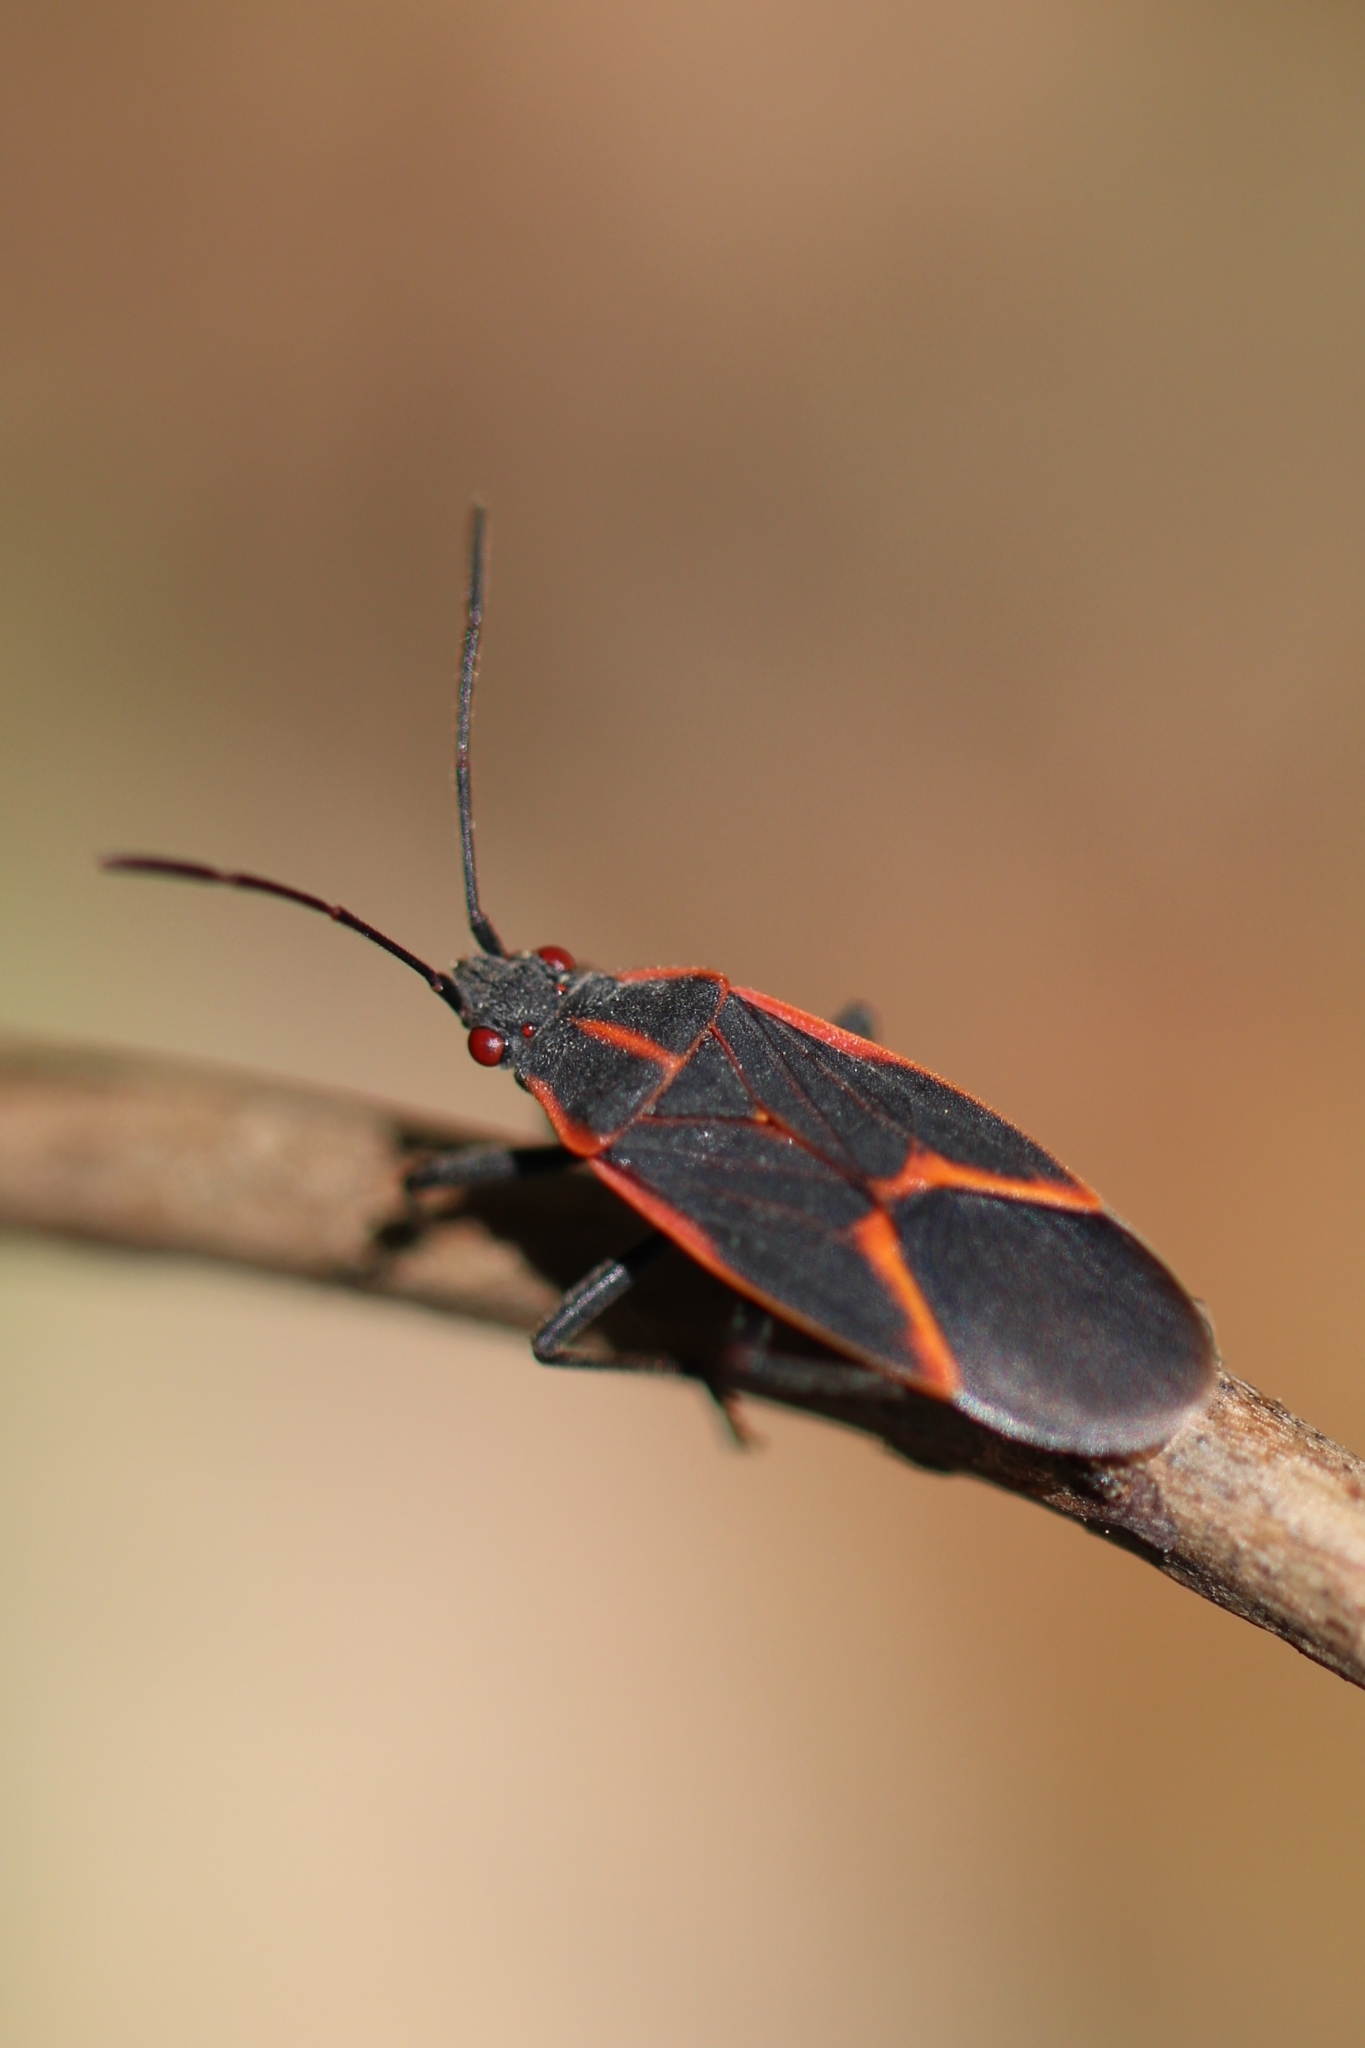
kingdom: Animalia
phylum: Arthropoda
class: Insecta
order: Hemiptera
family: Rhopalidae
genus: Boisea
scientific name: Boisea trivittata
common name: Boxelder bug
